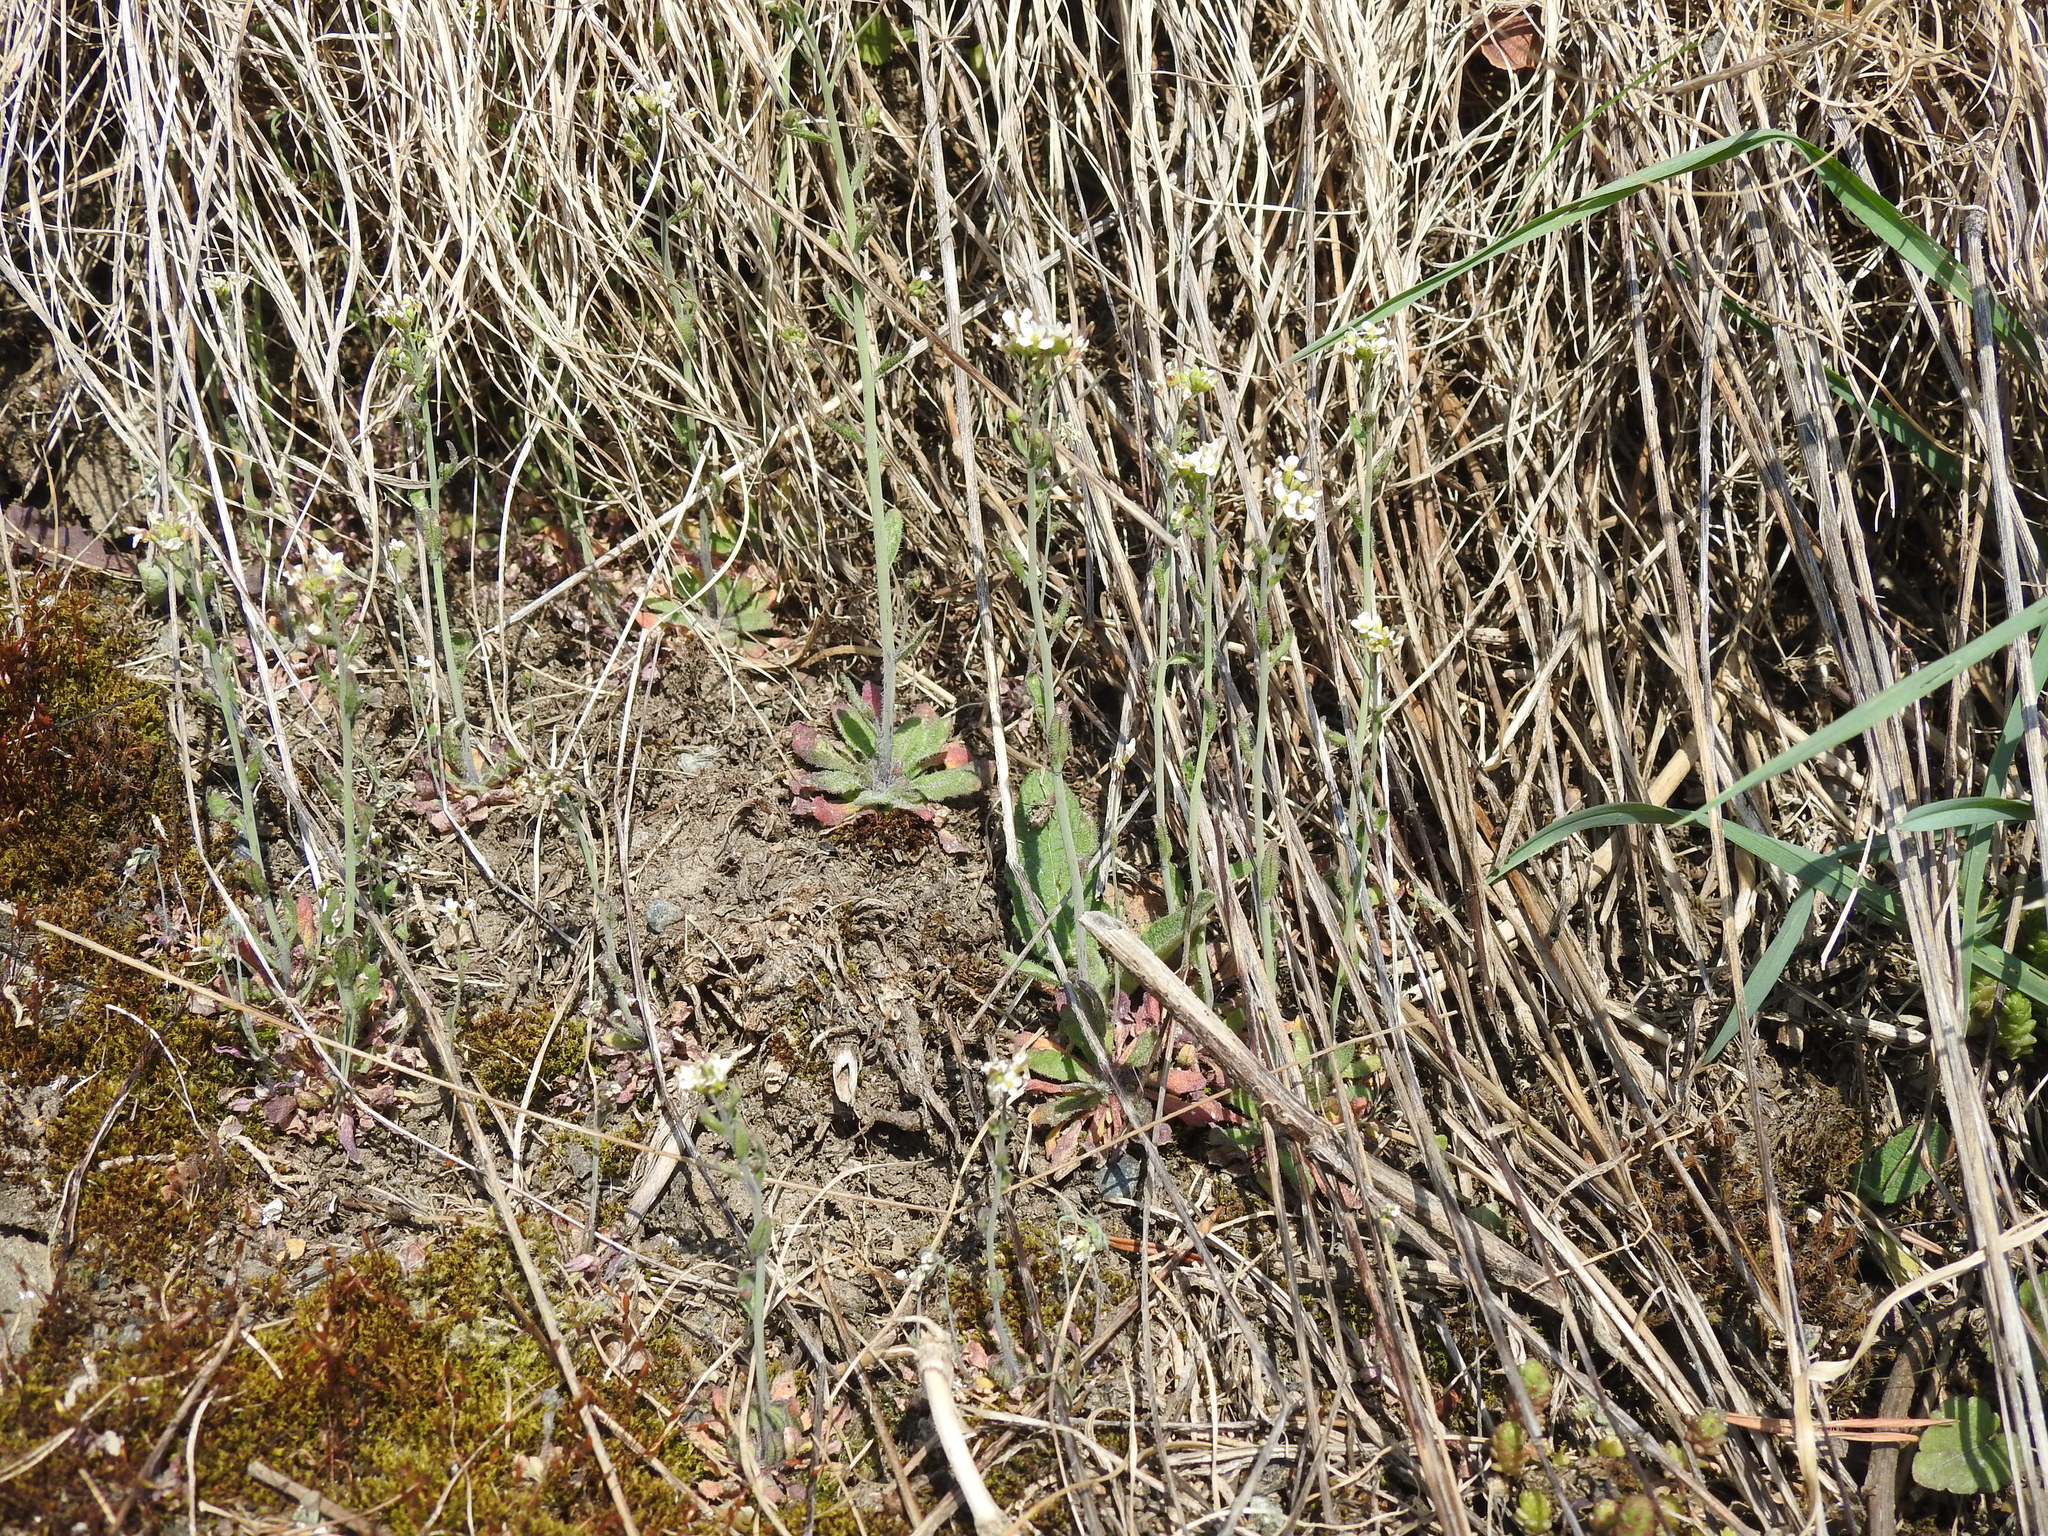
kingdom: Plantae
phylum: Tracheophyta
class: Magnoliopsida
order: Brassicales
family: Brassicaceae
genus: Arabidopsis
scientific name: Arabidopsis thaliana
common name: Thale cress
